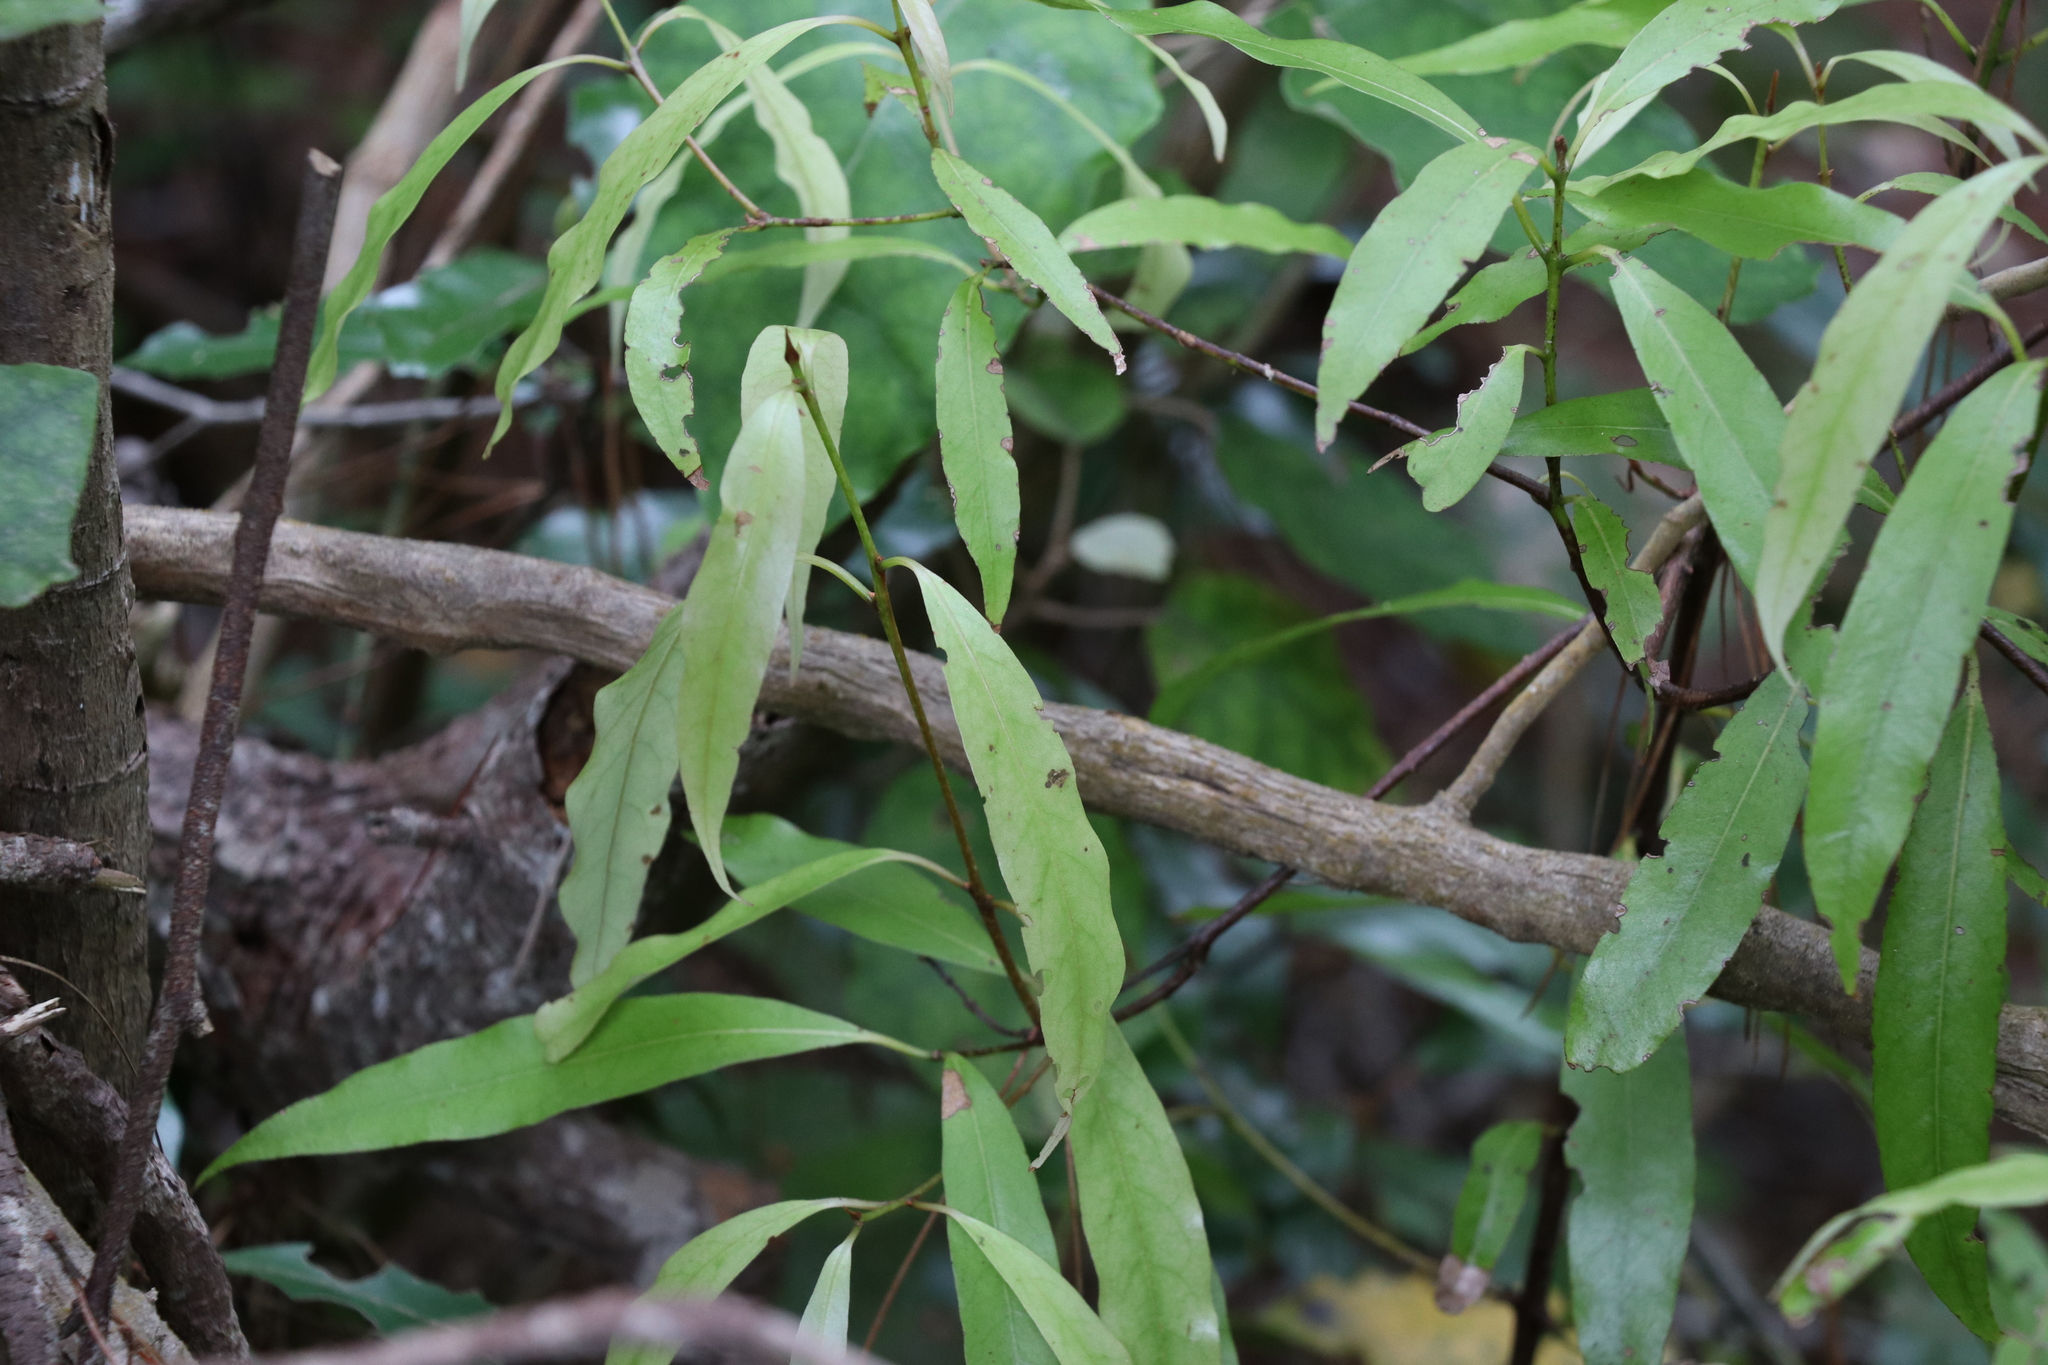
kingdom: Plantae
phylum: Tracheophyta
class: Magnoliopsida
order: Laurales
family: Lauraceae
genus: Beilschmiedia
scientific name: Beilschmiedia tawa
